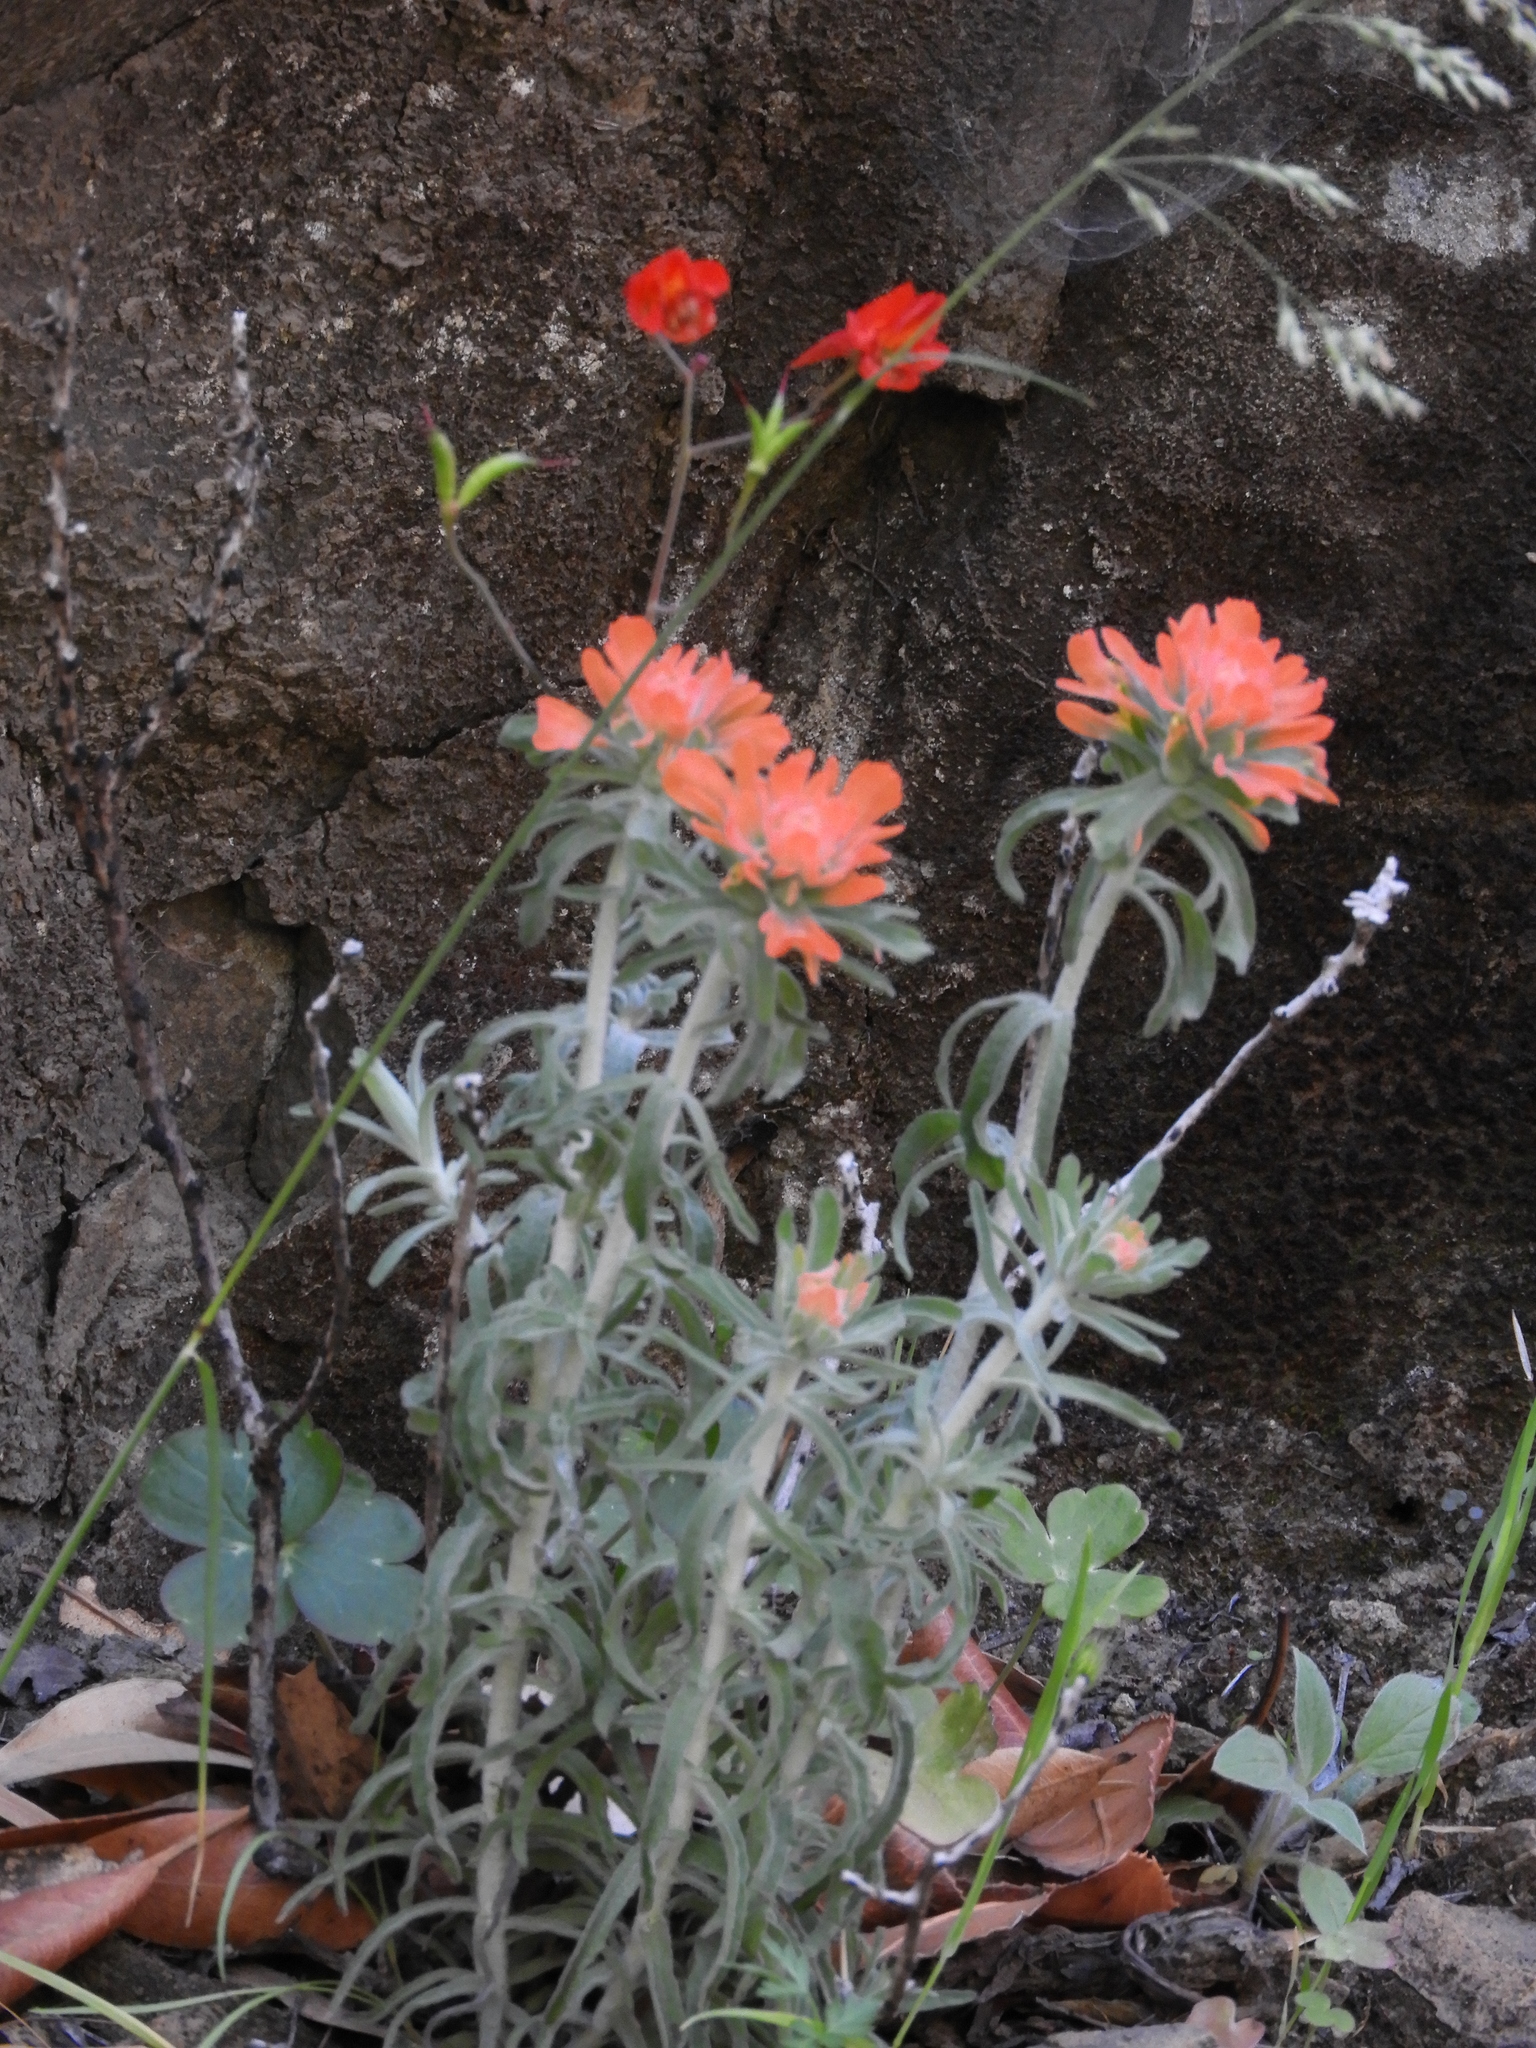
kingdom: Plantae
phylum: Tracheophyta
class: Magnoliopsida
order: Lamiales
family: Orobanchaceae
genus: Castilleja
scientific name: Castilleja foliolosa
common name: Woolly indian paintbrush
